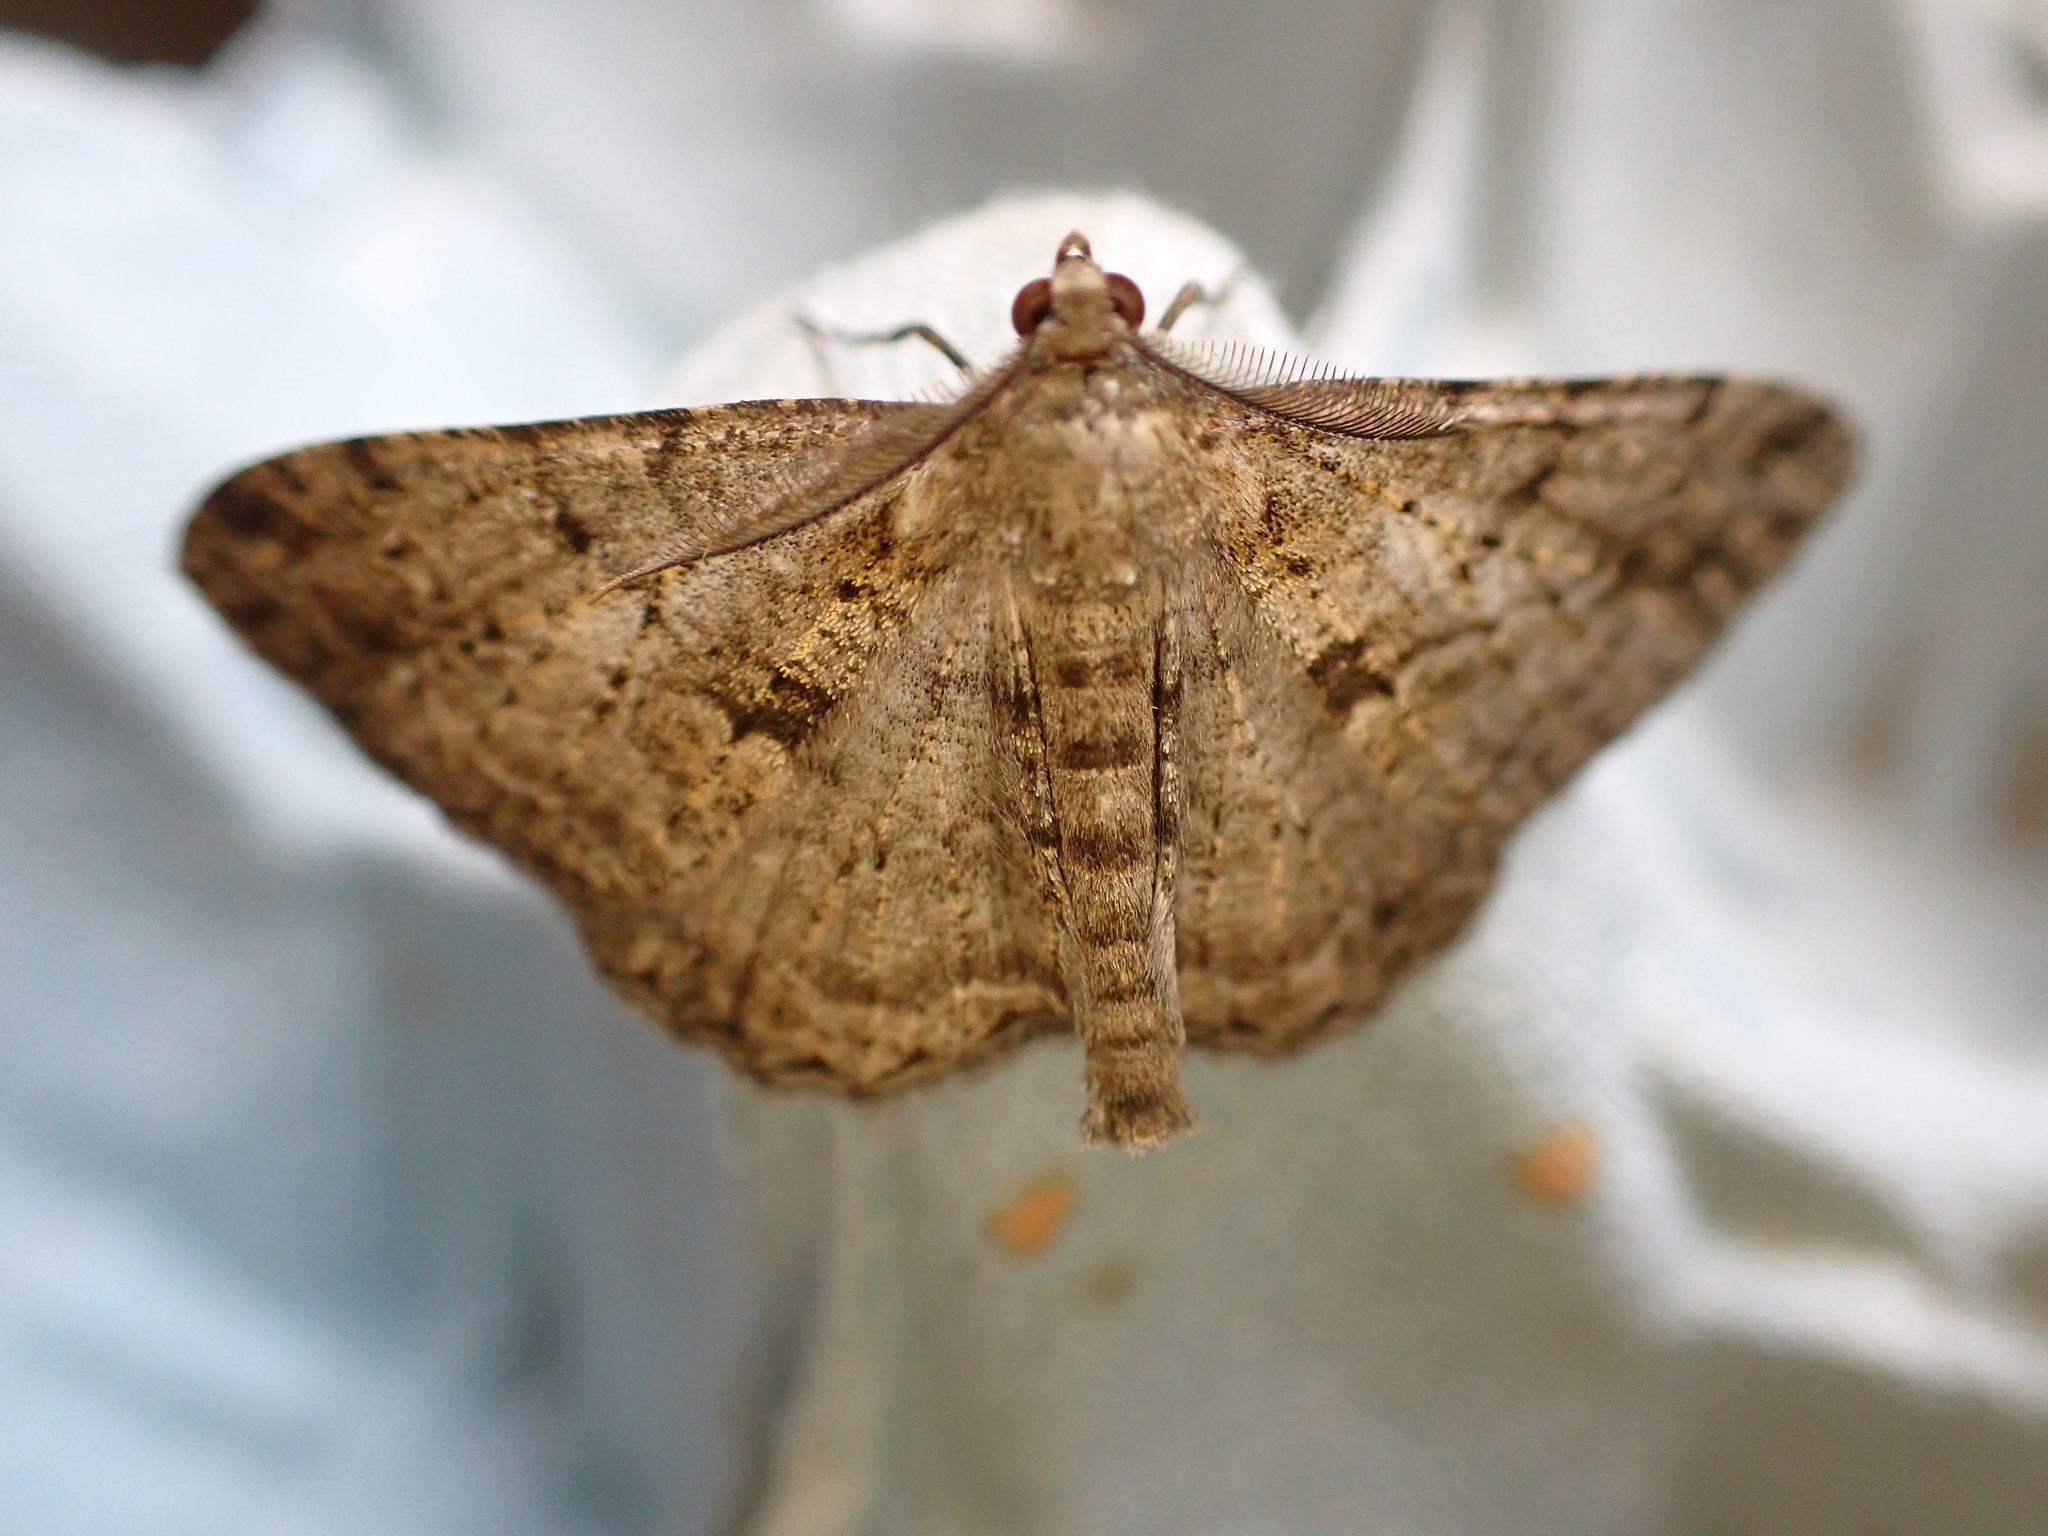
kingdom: Animalia
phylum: Arthropoda
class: Insecta
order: Lepidoptera
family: Geometridae
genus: Peribatodes
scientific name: Peribatodes rhomboidaria
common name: Willow beauty
